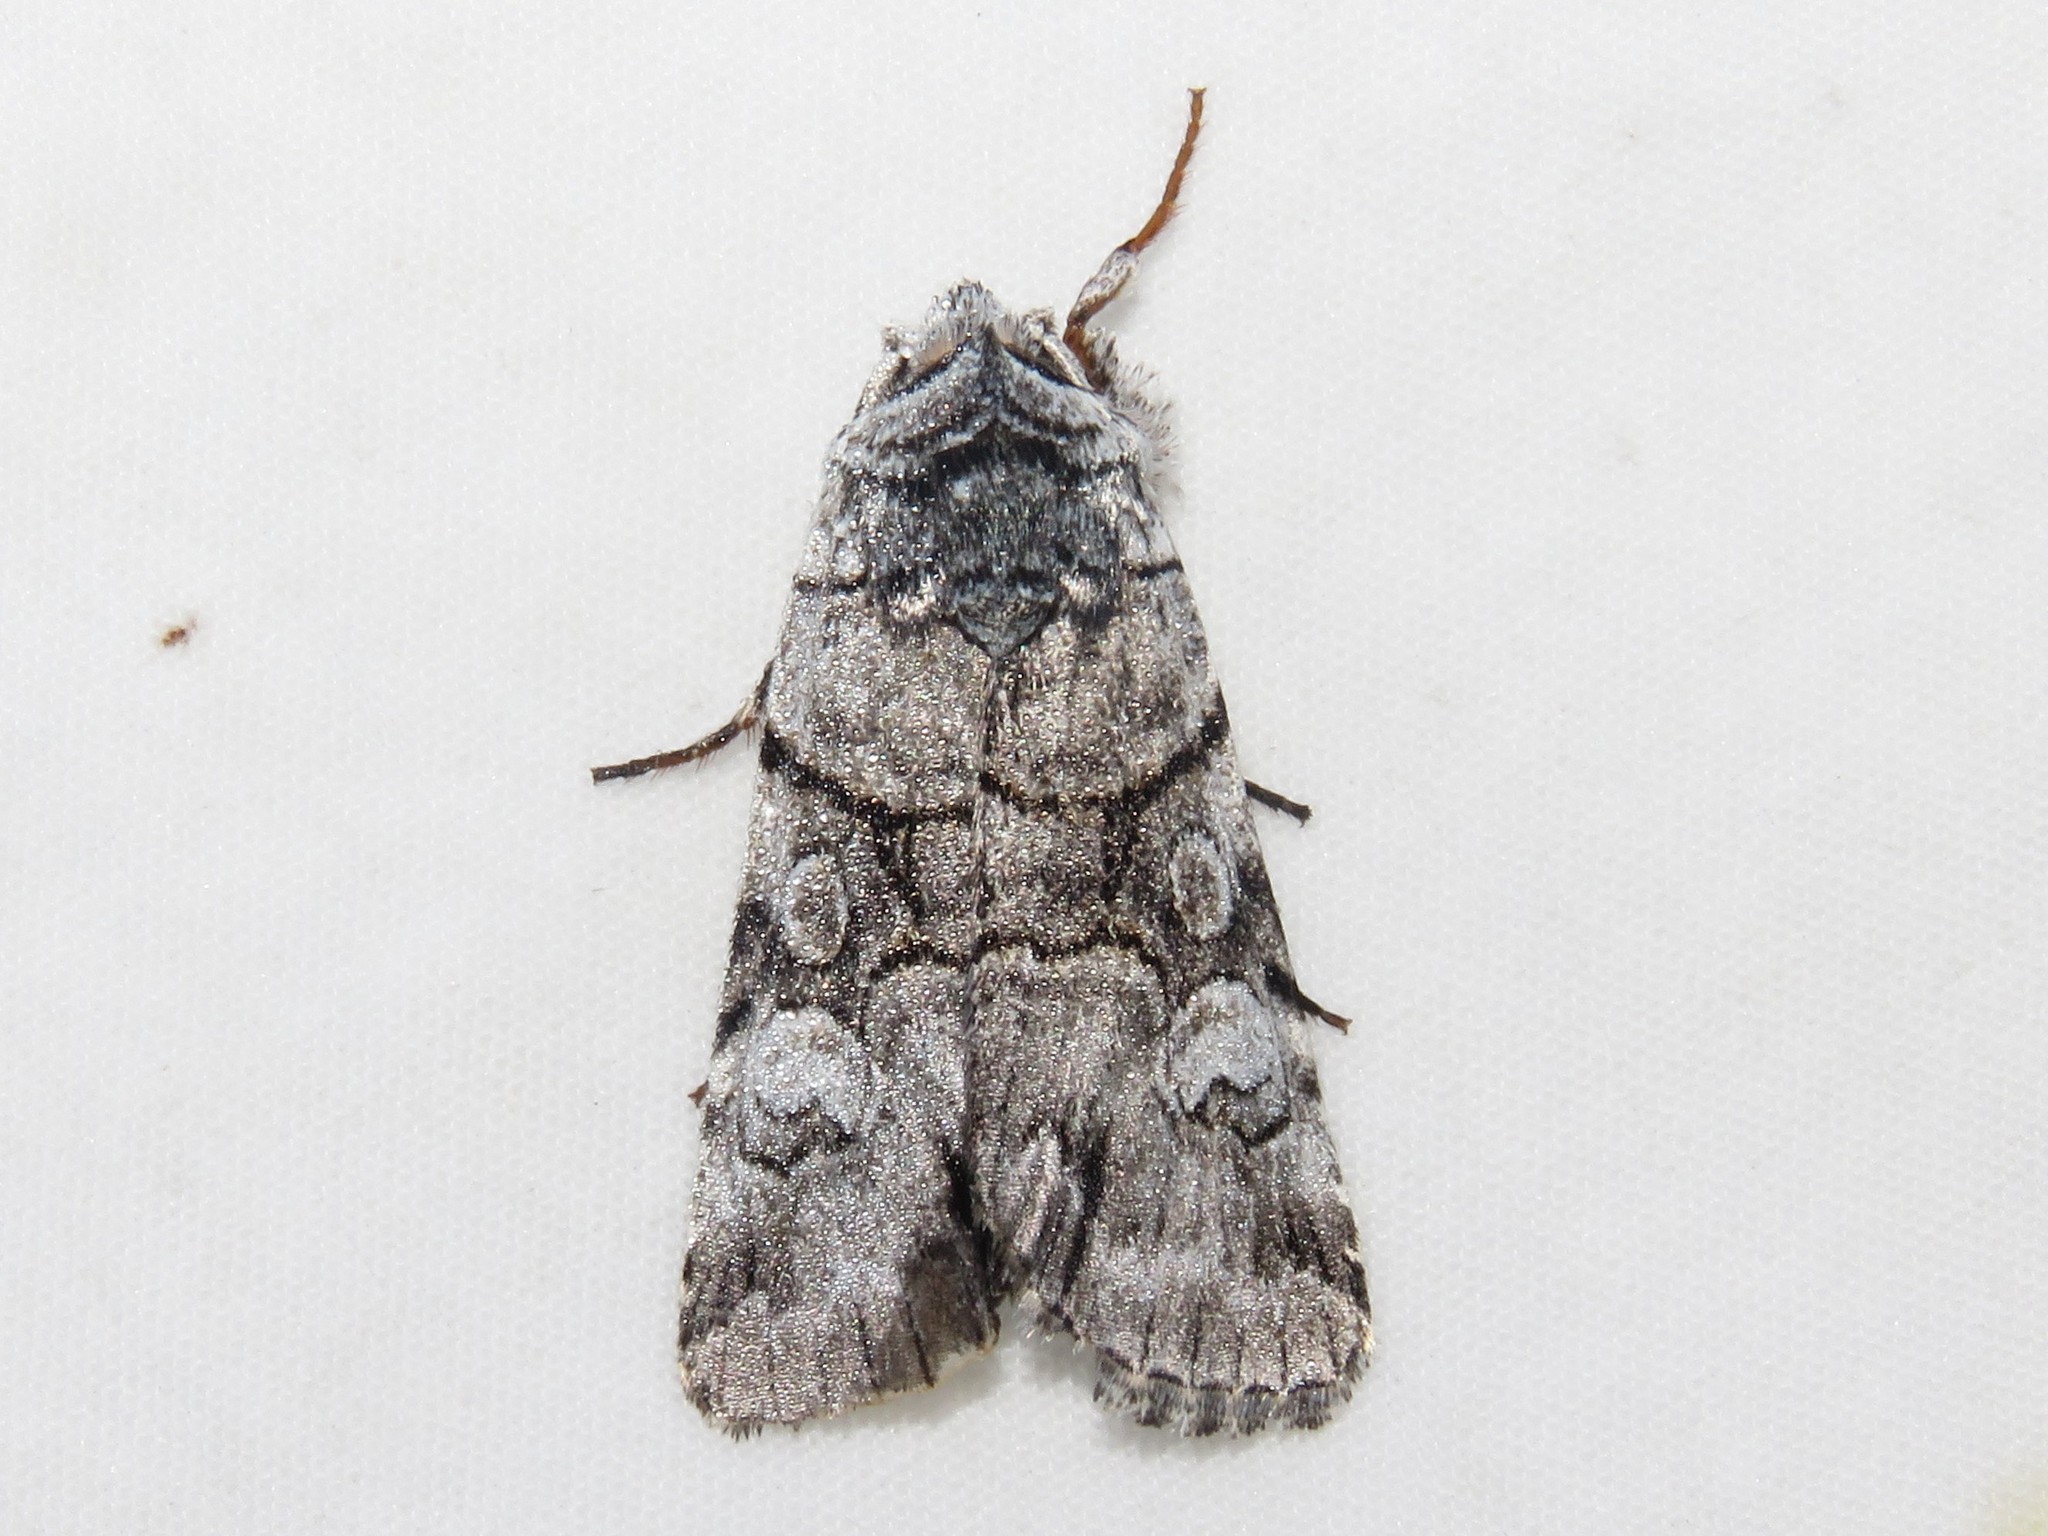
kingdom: Animalia
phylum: Arthropoda
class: Insecta
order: Lepidoptera
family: Noctuidae
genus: Sympistis
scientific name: Sympistis chionanthi
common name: Fringe-tree sallow
